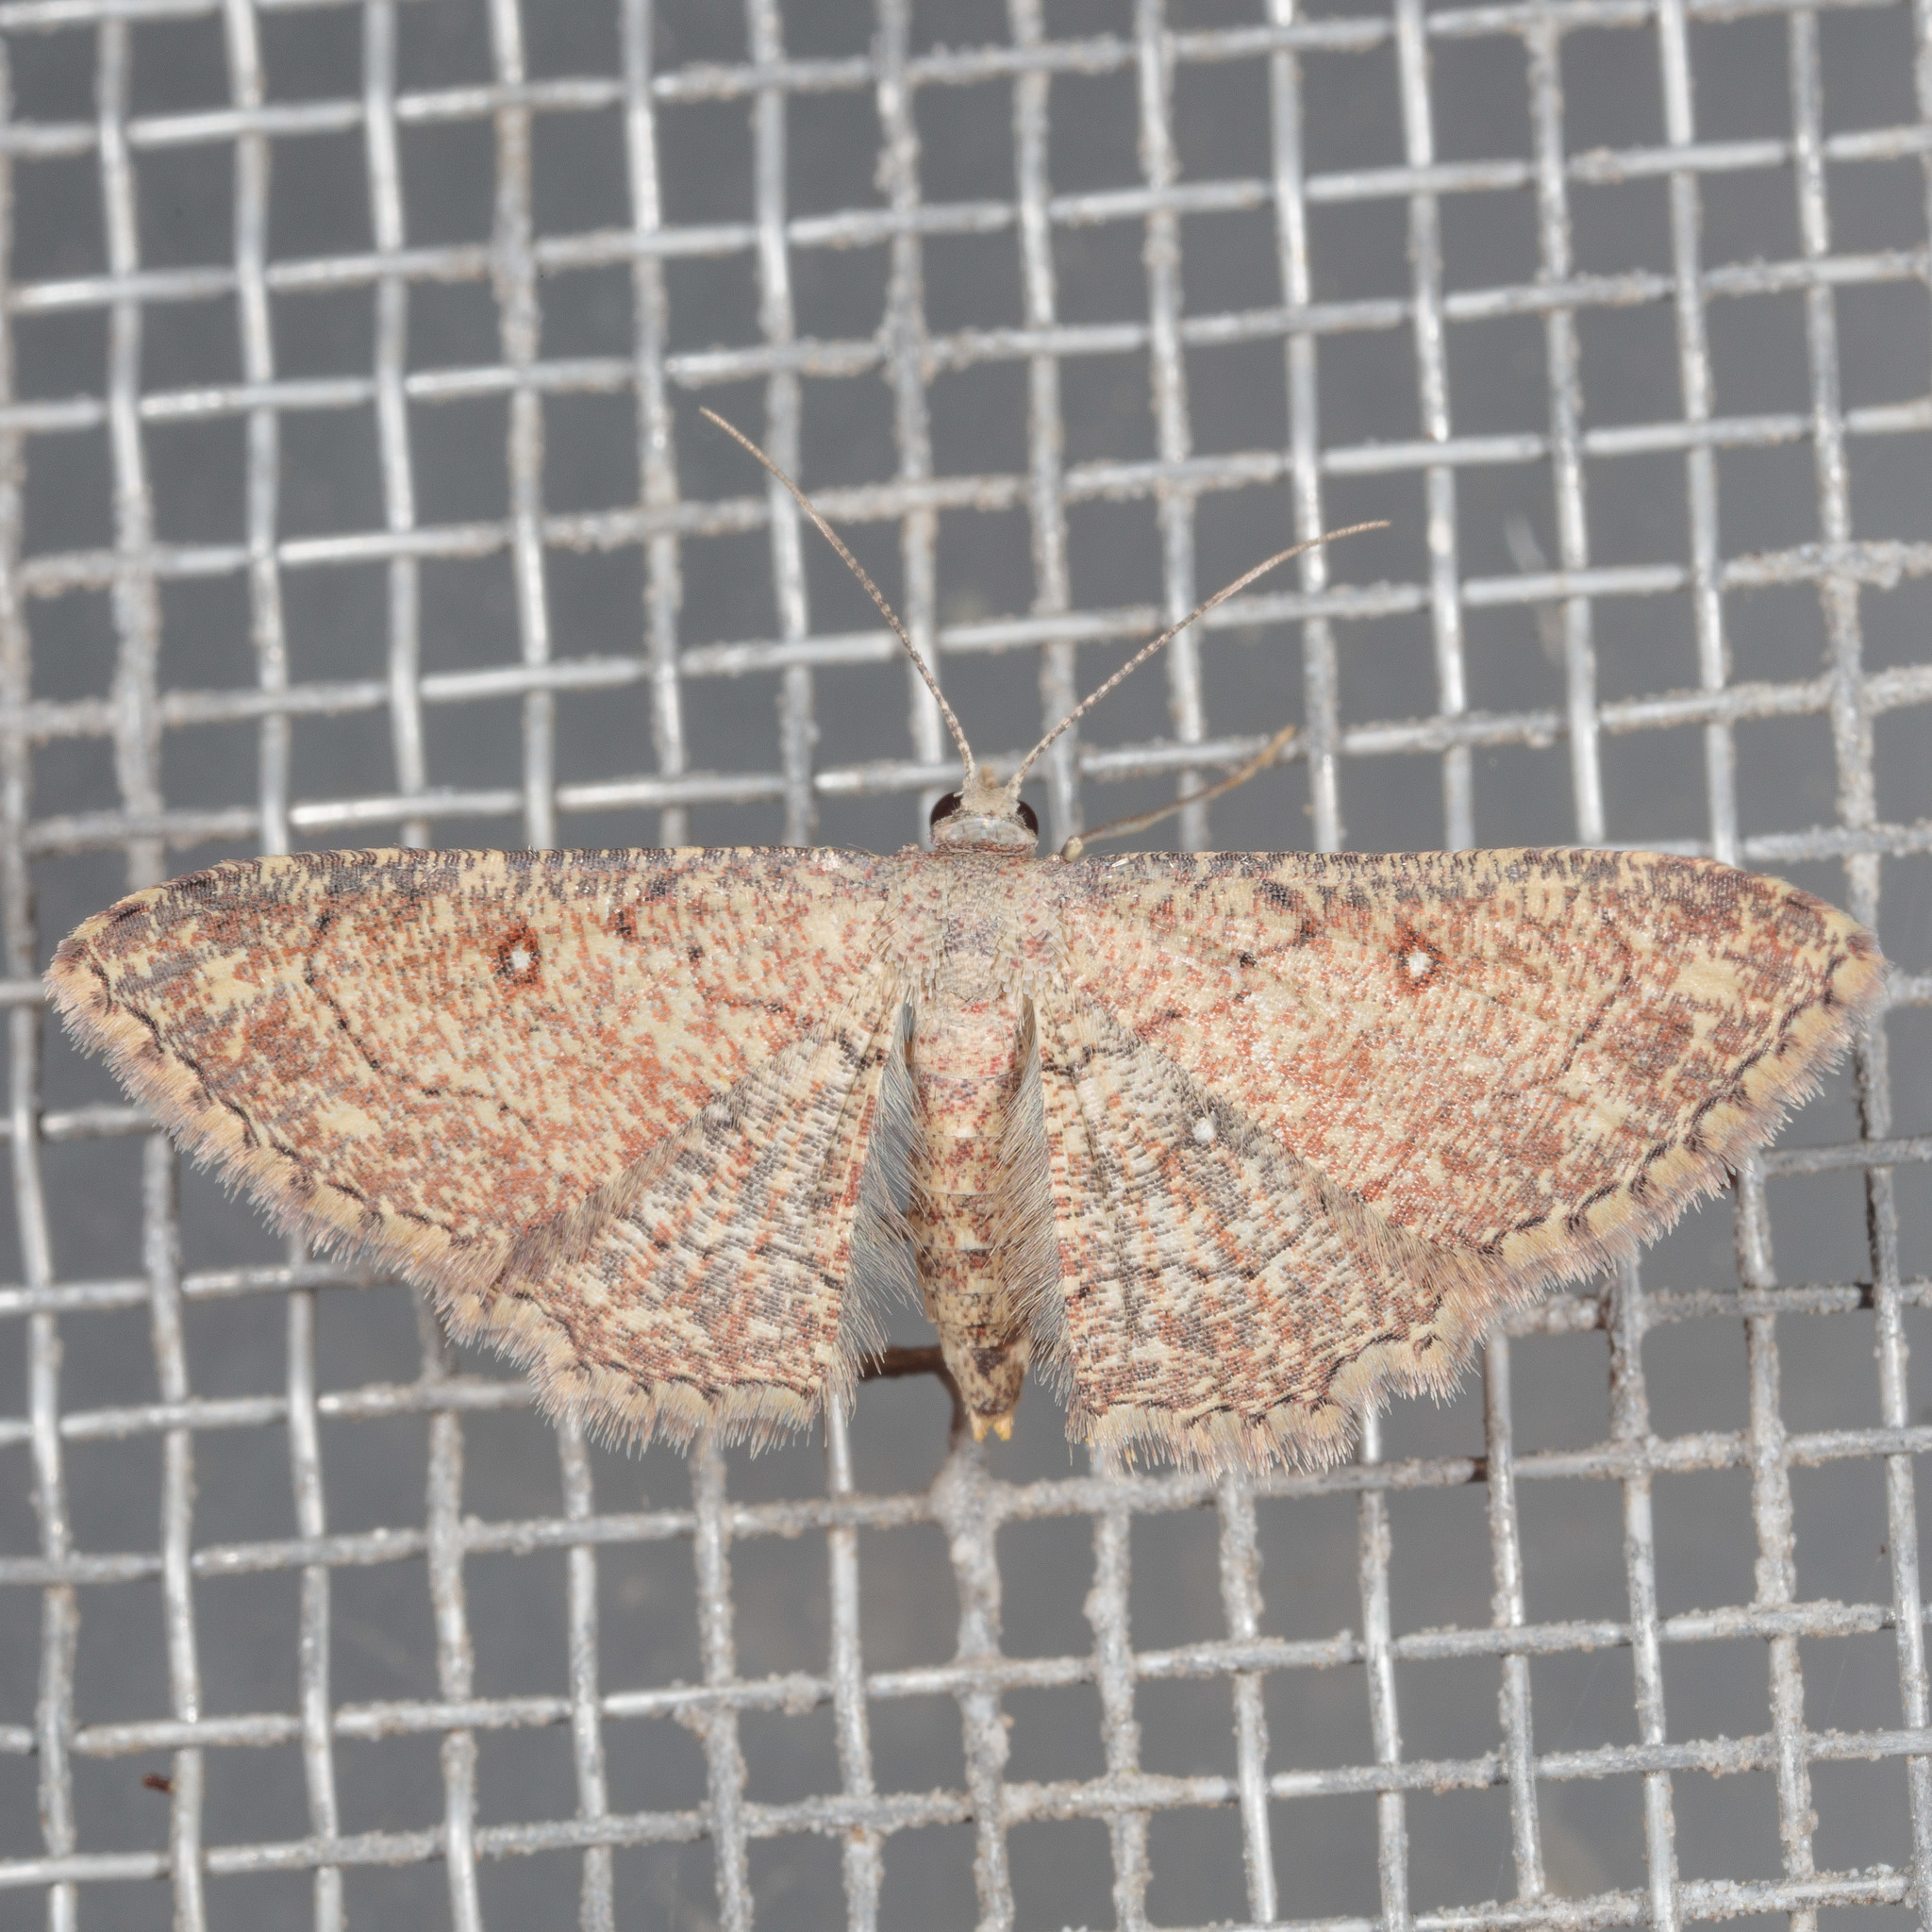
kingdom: Animalia
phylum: Arthropoda
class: Insecta
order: Lepidoptera
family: Geometridae
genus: Cyclophora
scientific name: Cyclophora nanaria
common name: Cankerworm
